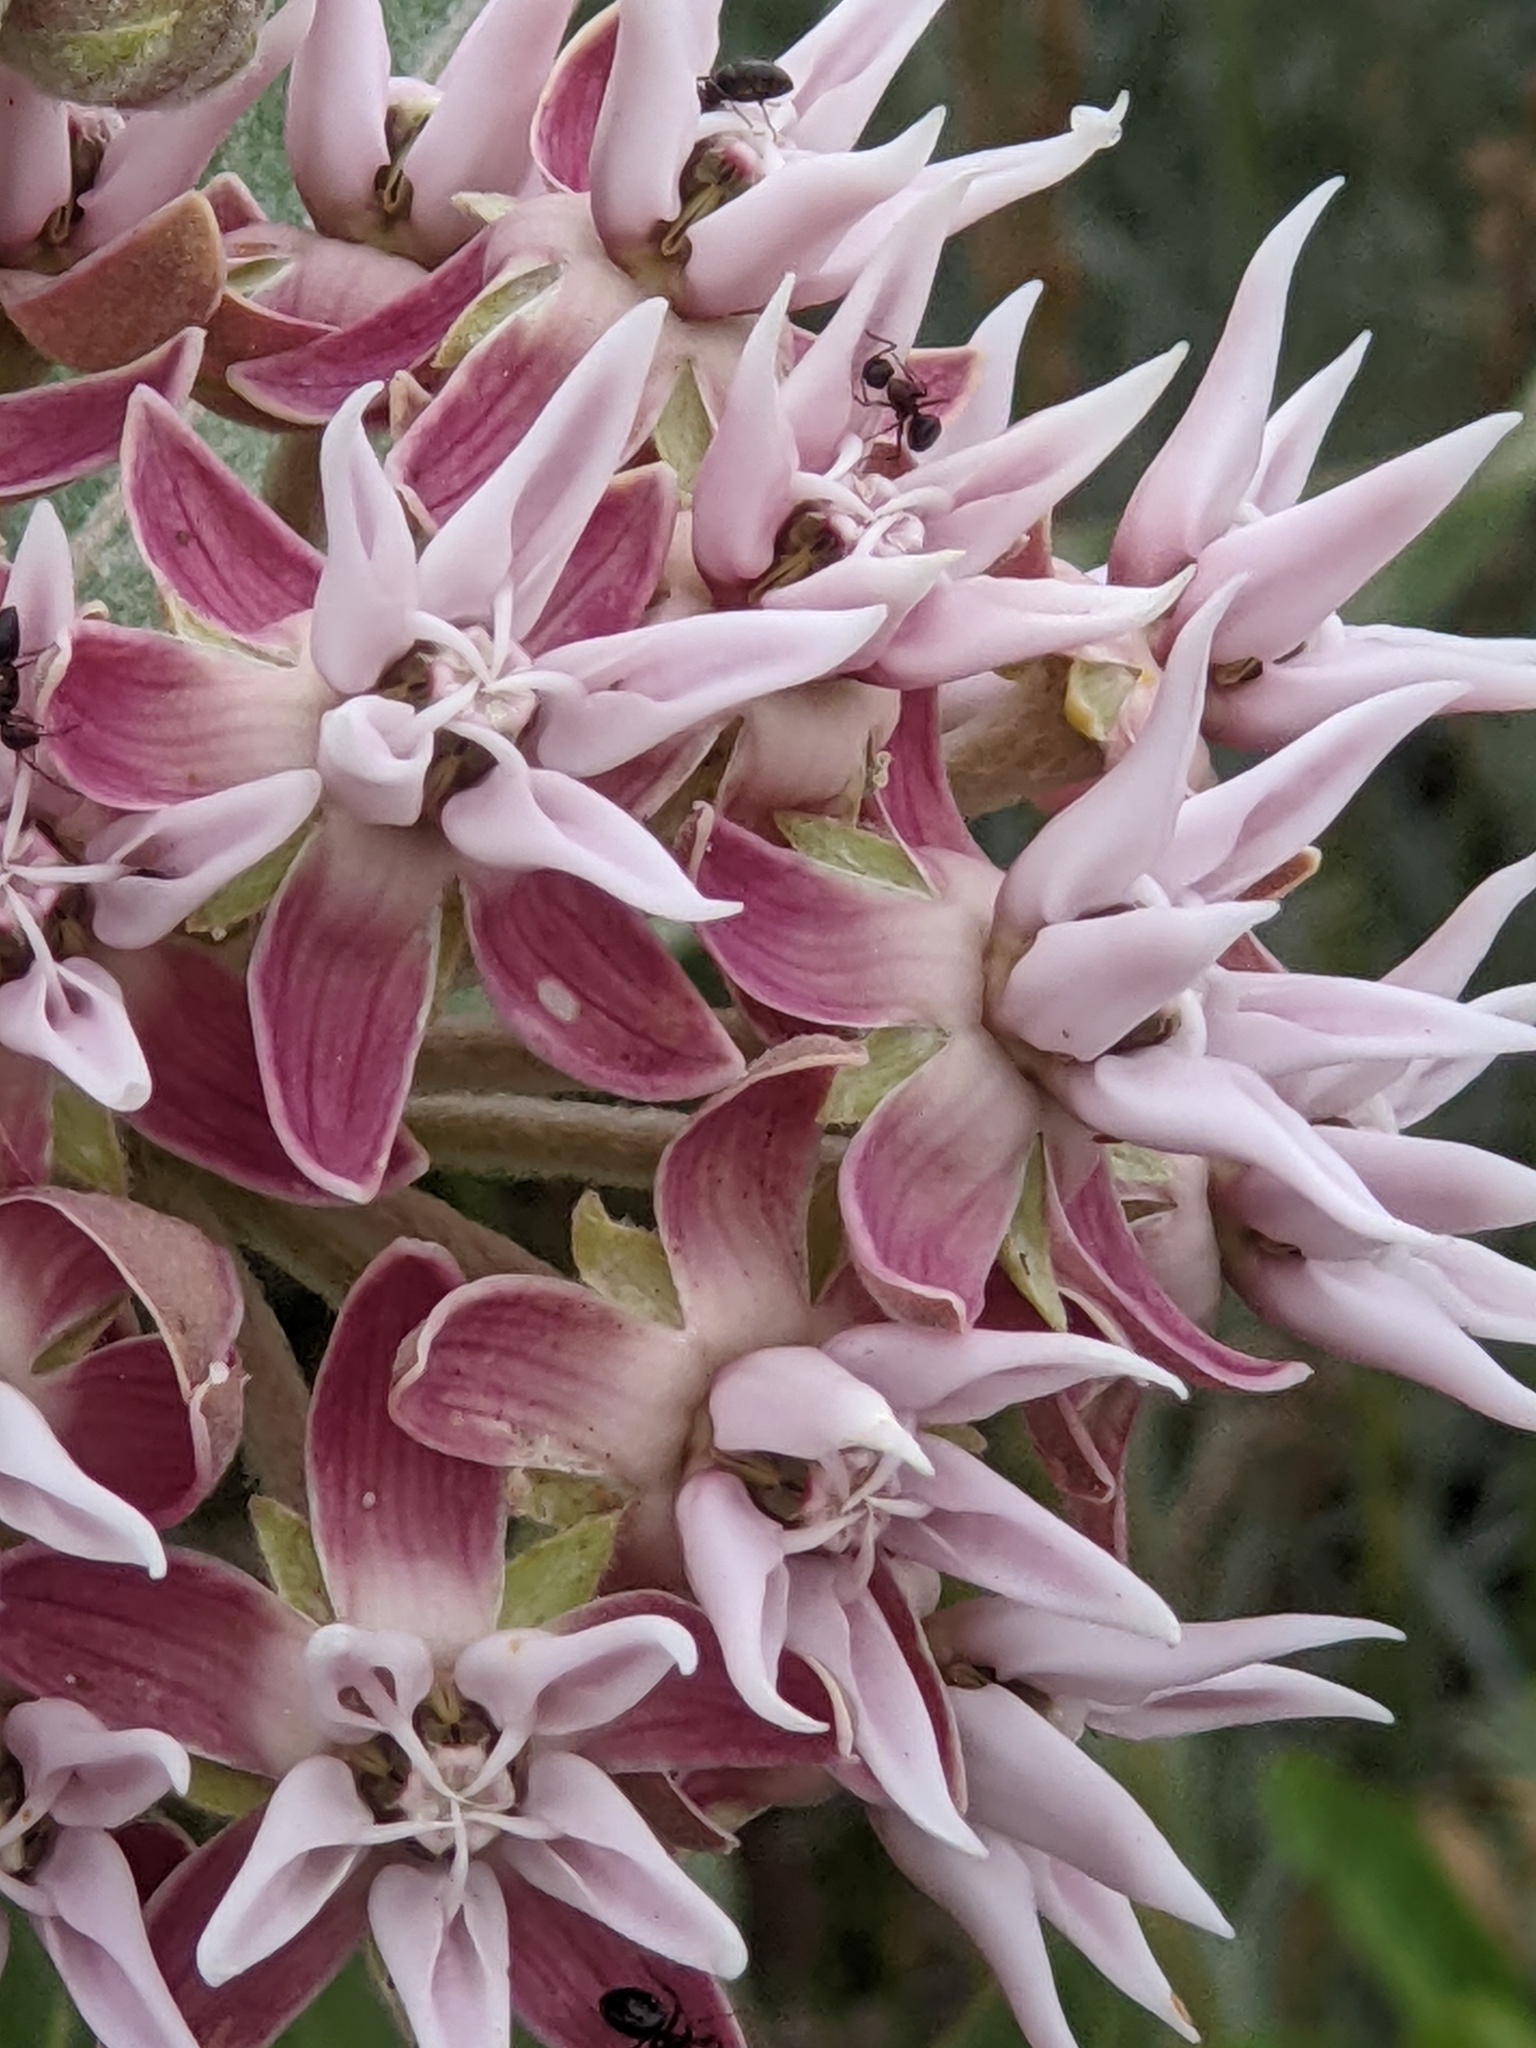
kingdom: Plantae
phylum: Tracheophyta
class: Magnoliopsida
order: Gentianales
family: Apocynaceae
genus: Asclepias
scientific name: Asclepias speciosa
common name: Showy milkweed
